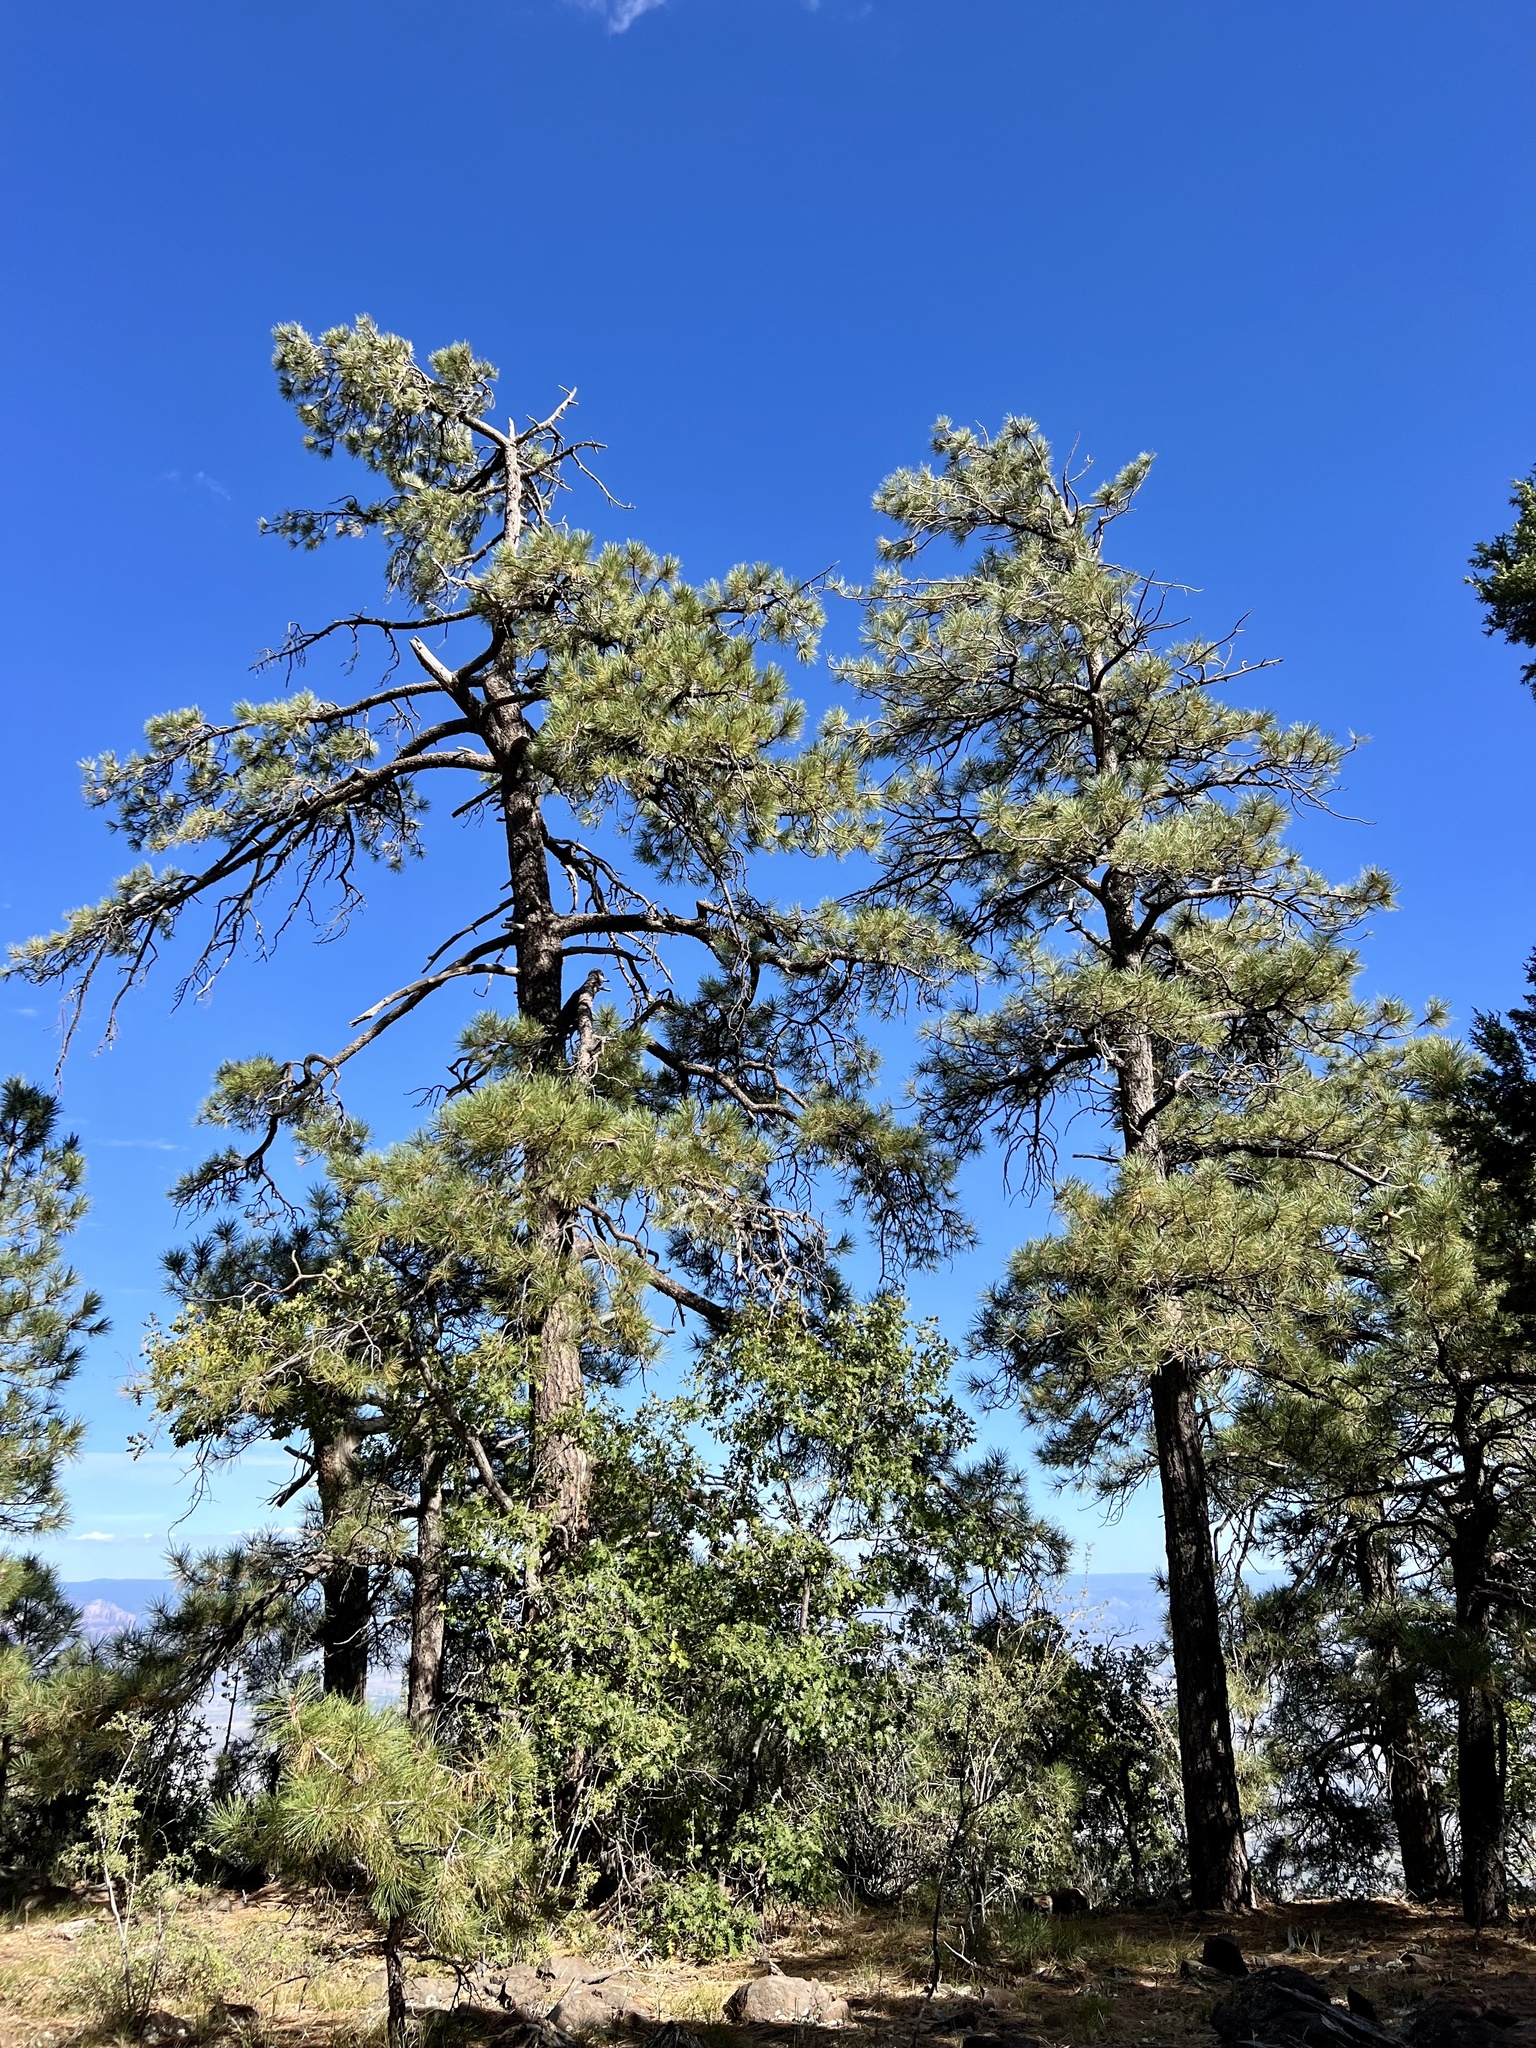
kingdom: Plantae
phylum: Tracheophyta
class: Pinopsida
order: Pinales
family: Pinaceae
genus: Pinus
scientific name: Pinus ponderosa
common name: Western yellow-pine
